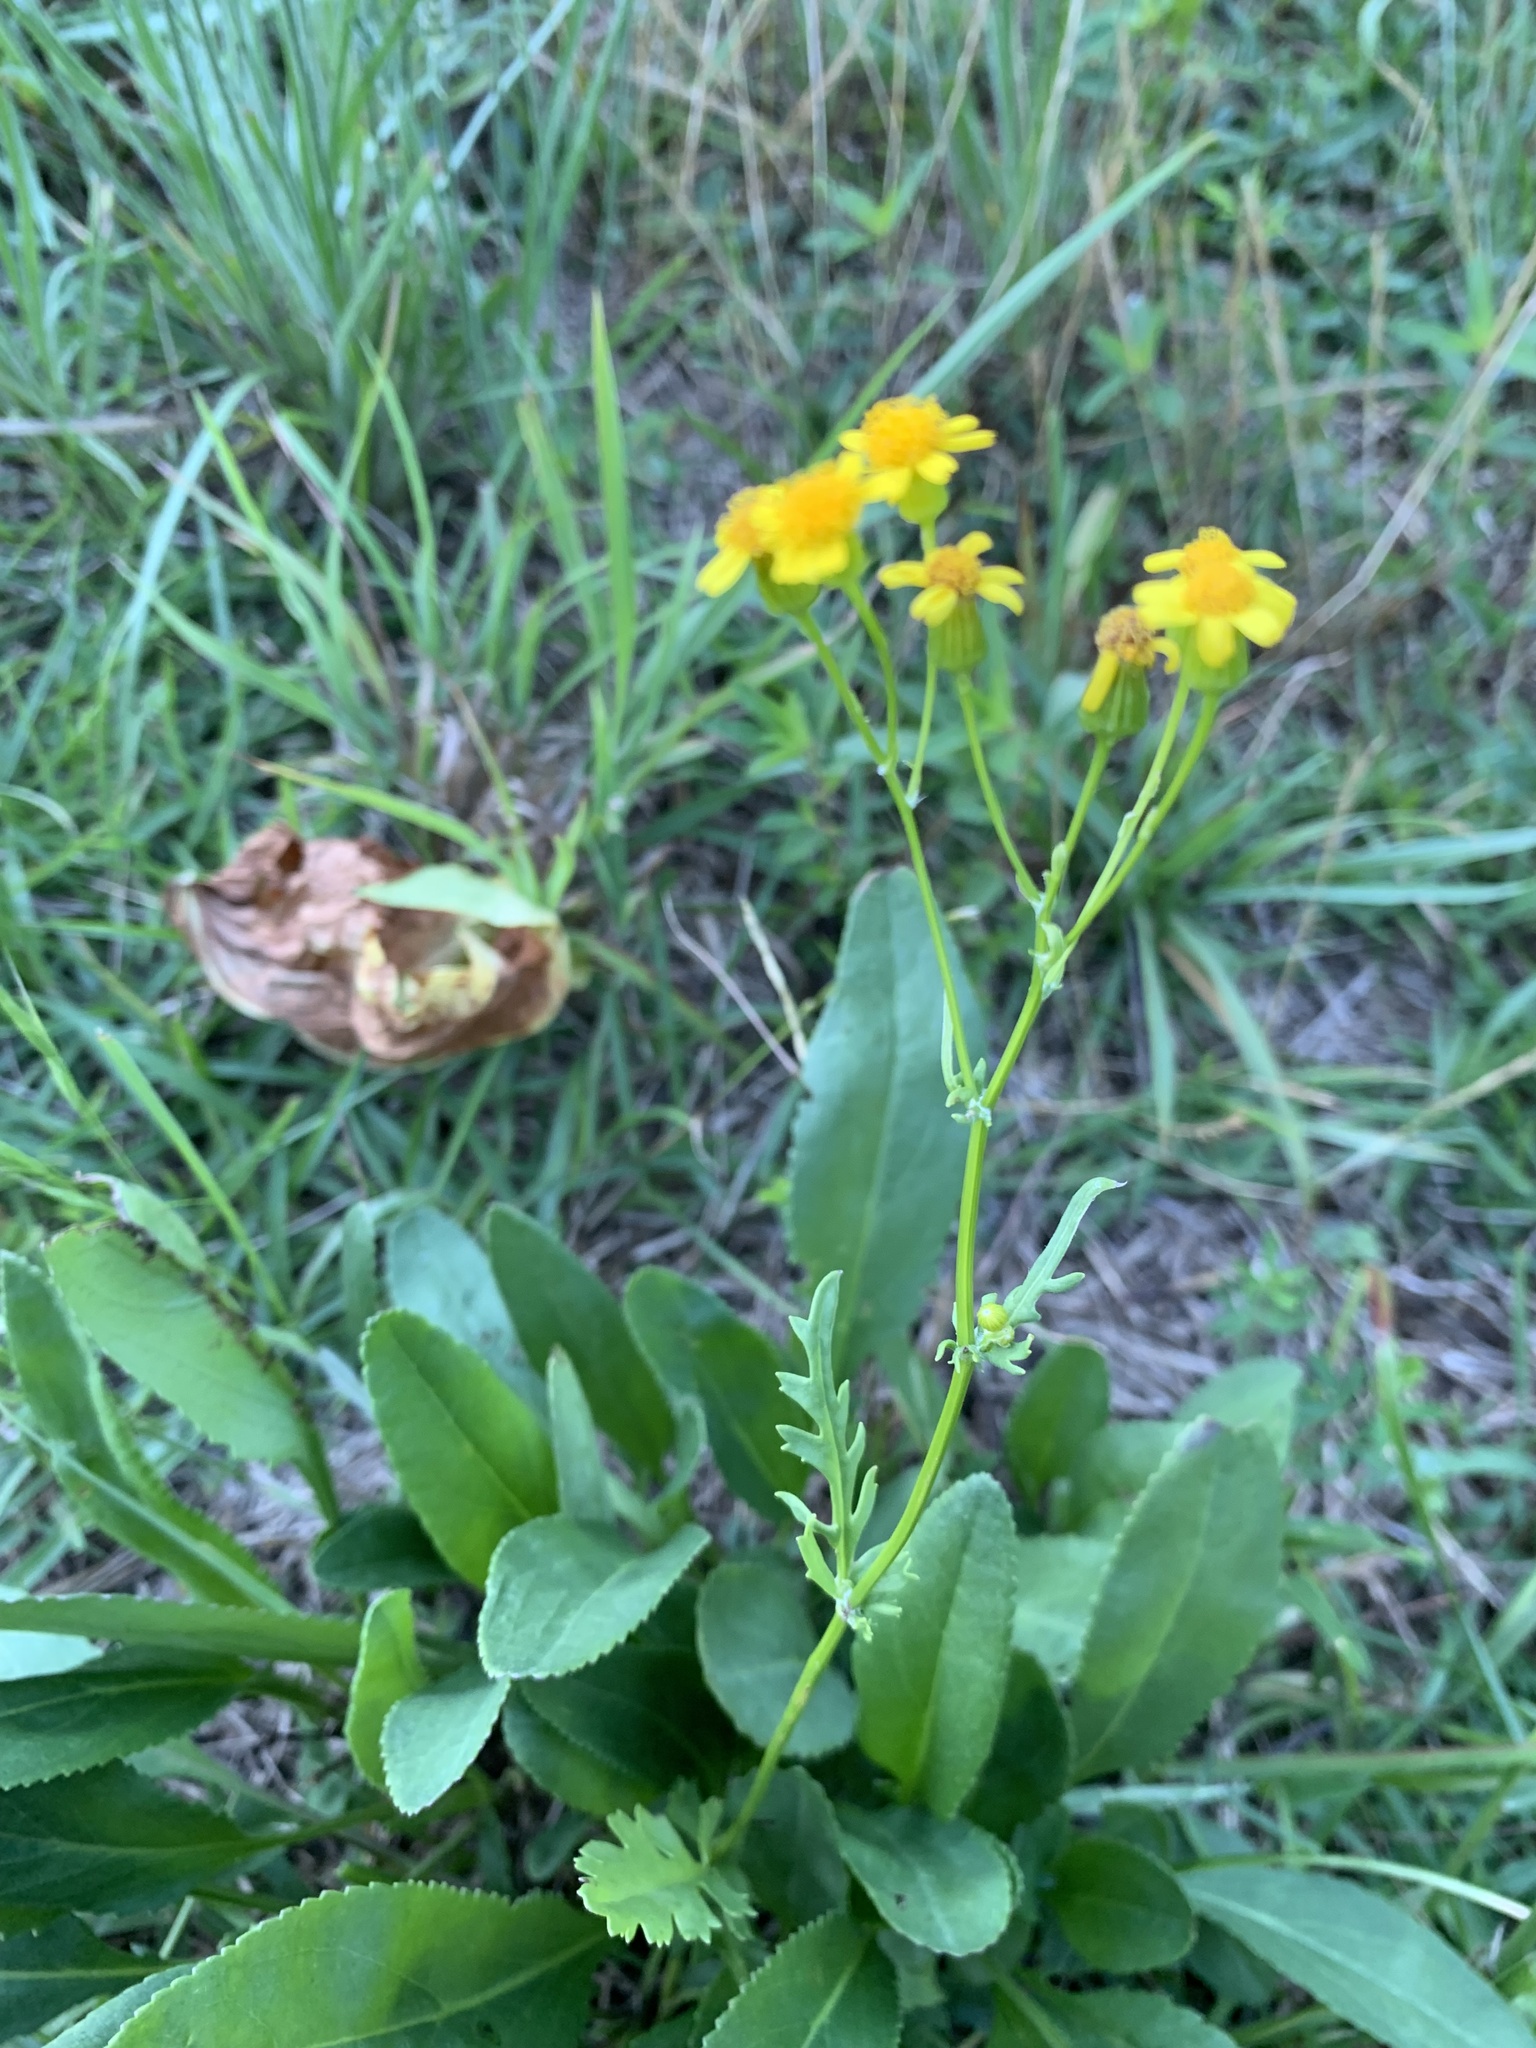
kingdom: Plantae
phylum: Tracheophyta
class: Magnoliopsida
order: Asterales
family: Asteraceae
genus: Packera
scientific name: Packera anonyma
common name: Small ragwort
